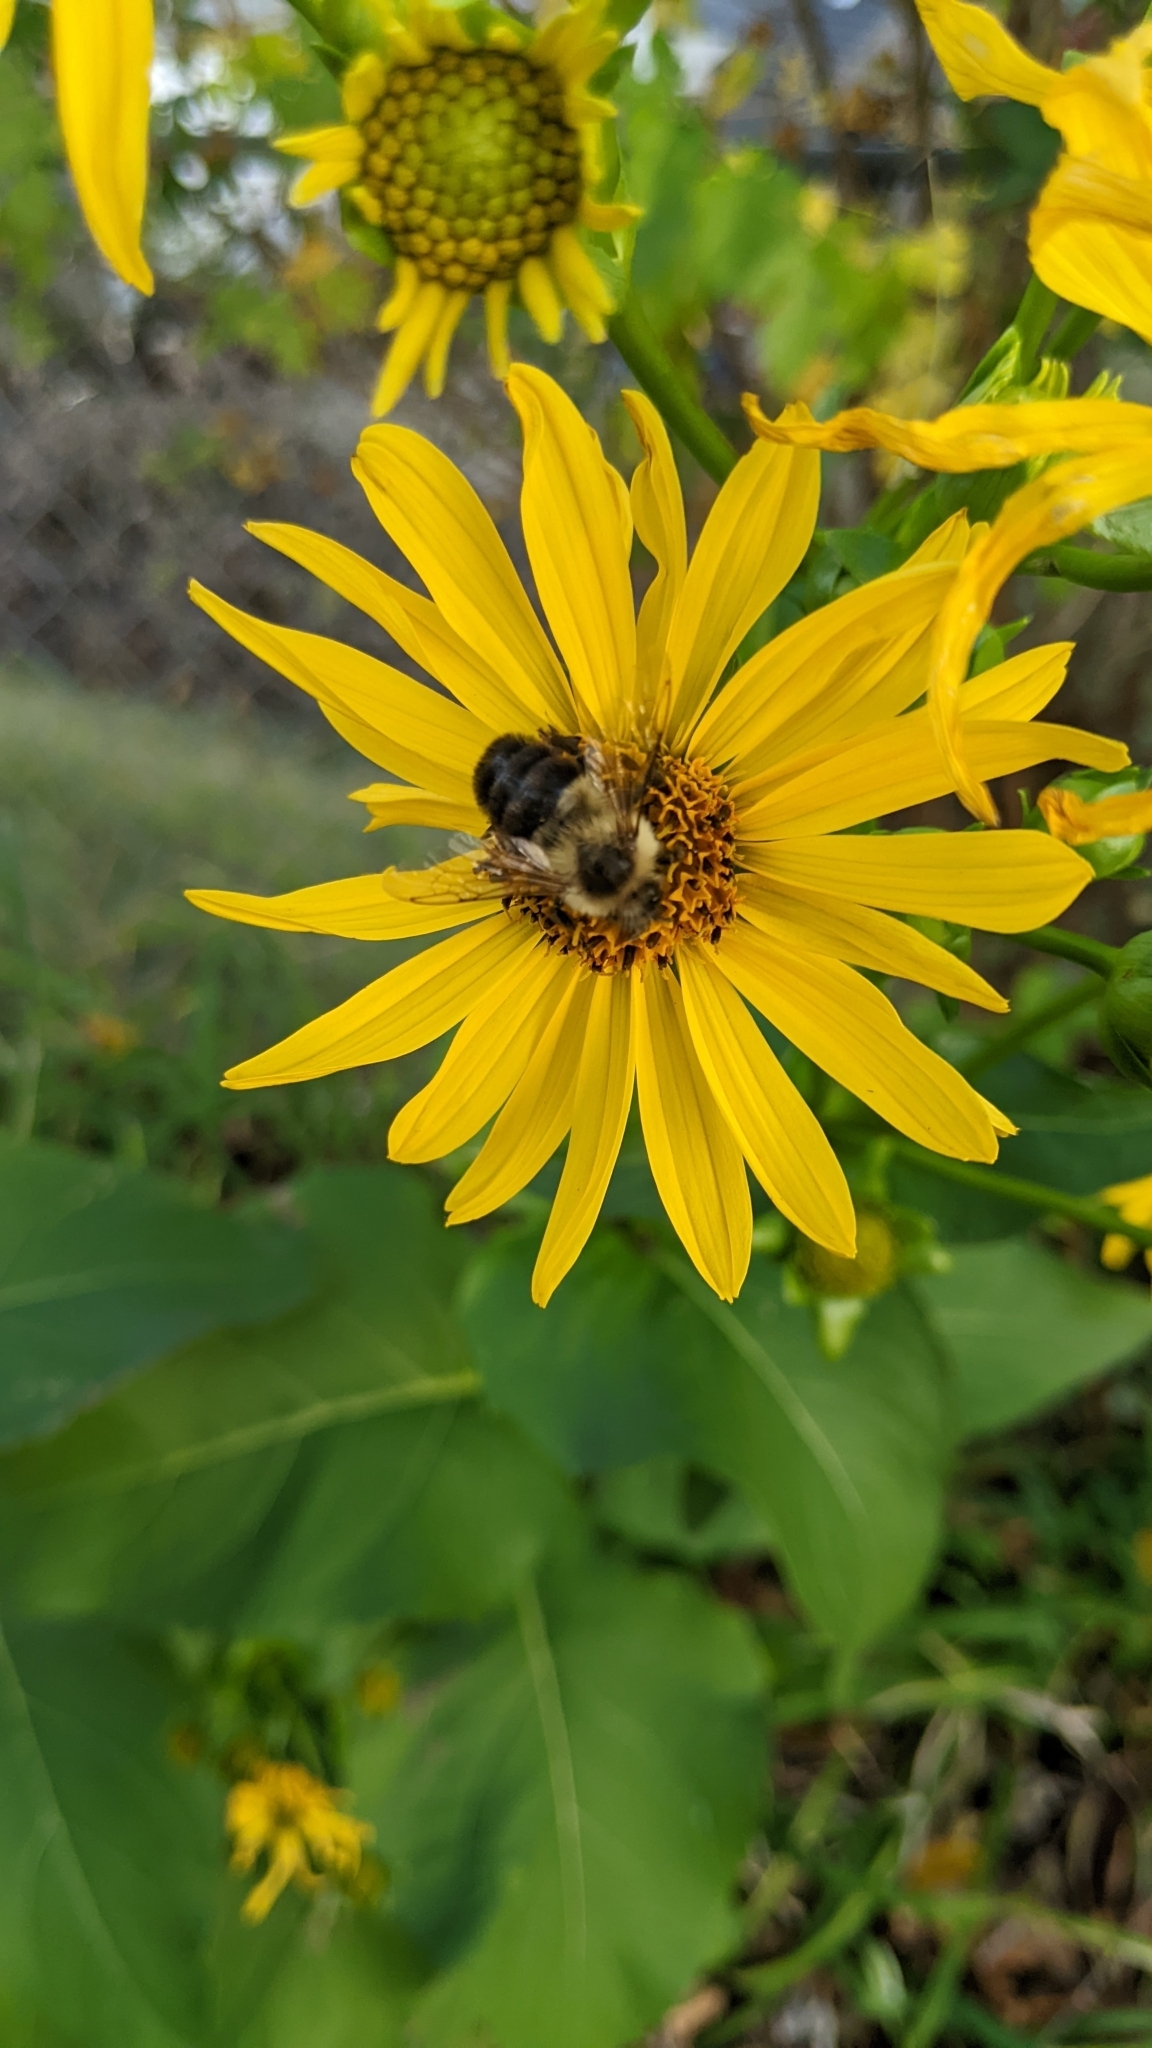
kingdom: Animalia
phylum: Arthropoda
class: Insecta
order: Hymenoptera
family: Apidae
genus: Bombus
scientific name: Bombus impatiens
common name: Common eastern bumble bee
